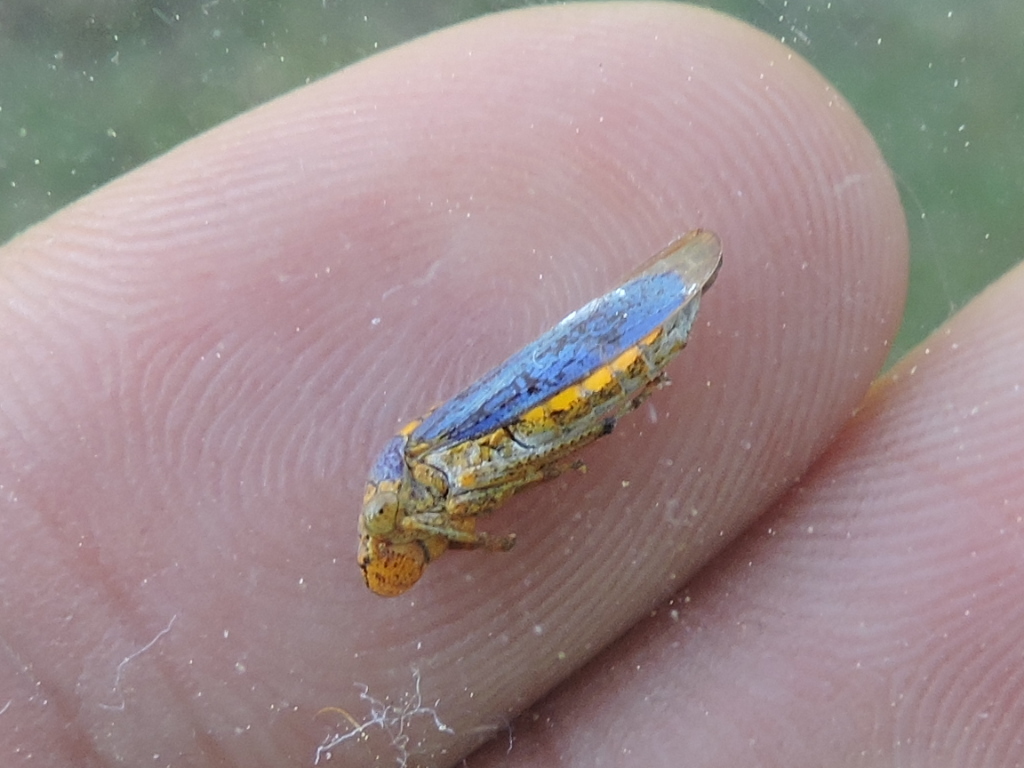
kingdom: Animalia
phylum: Arthropoda
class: Insecta
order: Hemiptera
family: Cicadellidae
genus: Oncometopia
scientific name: Oncometopia orbona
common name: Broad-headed sharpshooter
